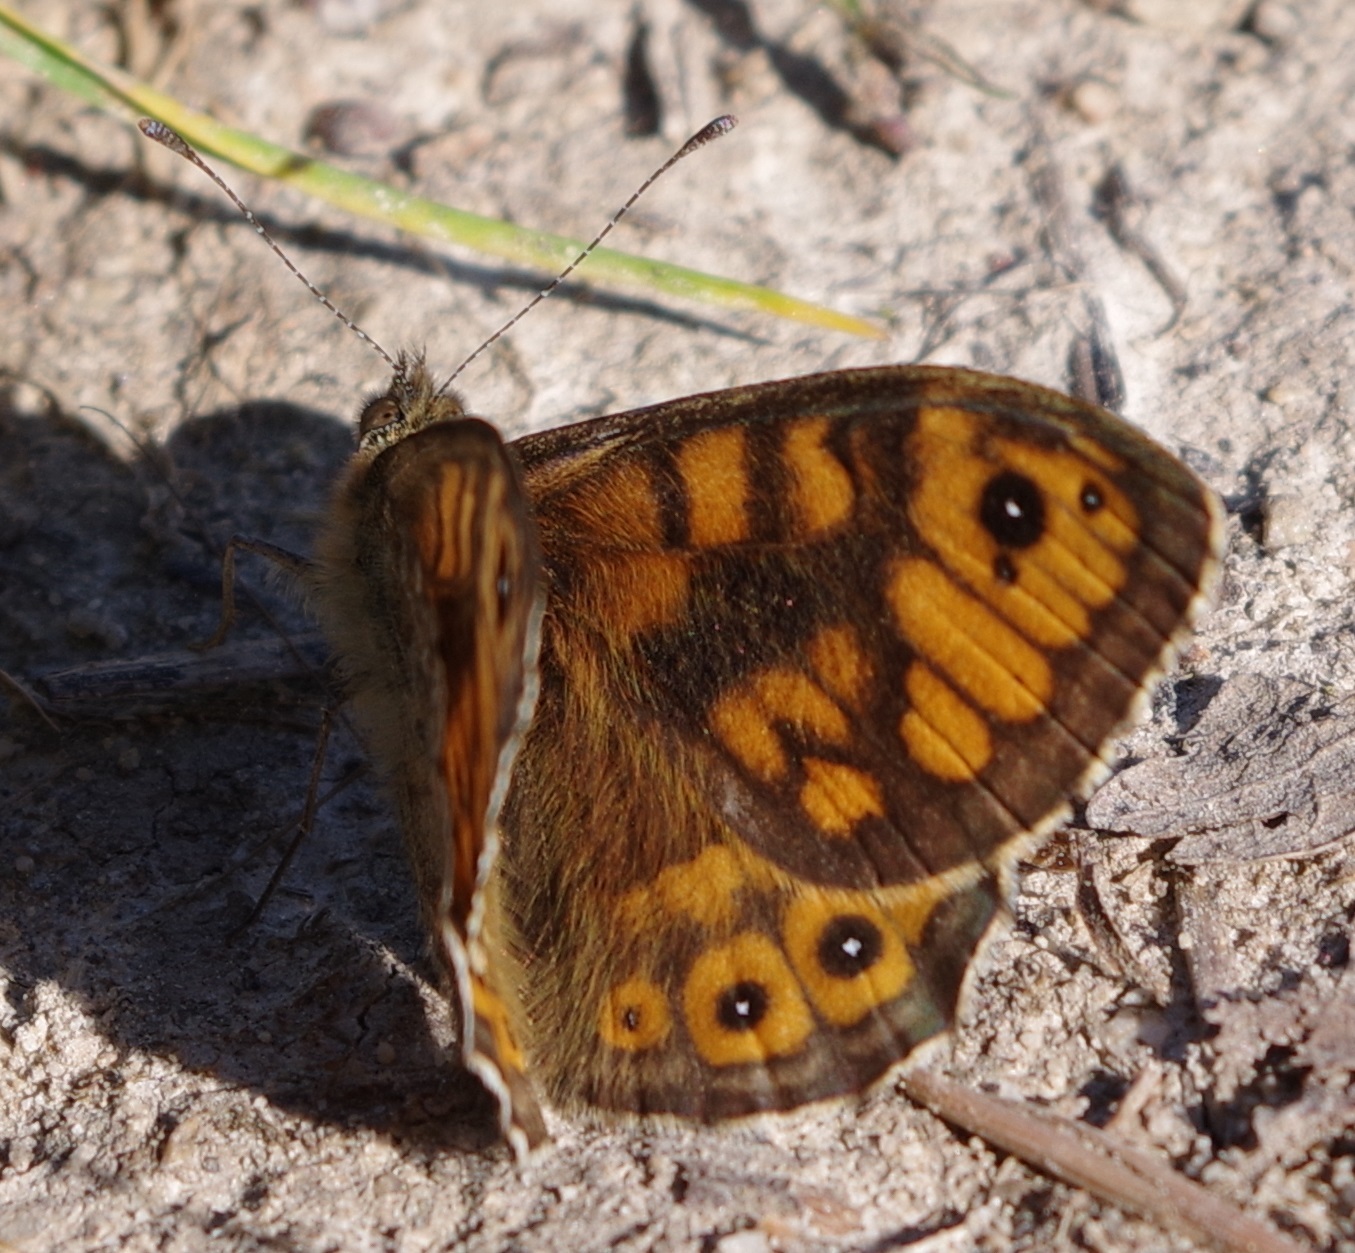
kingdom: Animalia
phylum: Arthropoda
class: Insecta
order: Lepidoptera
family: Nymphalidae
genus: Pararge
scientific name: Pararge Lasiommata megera
